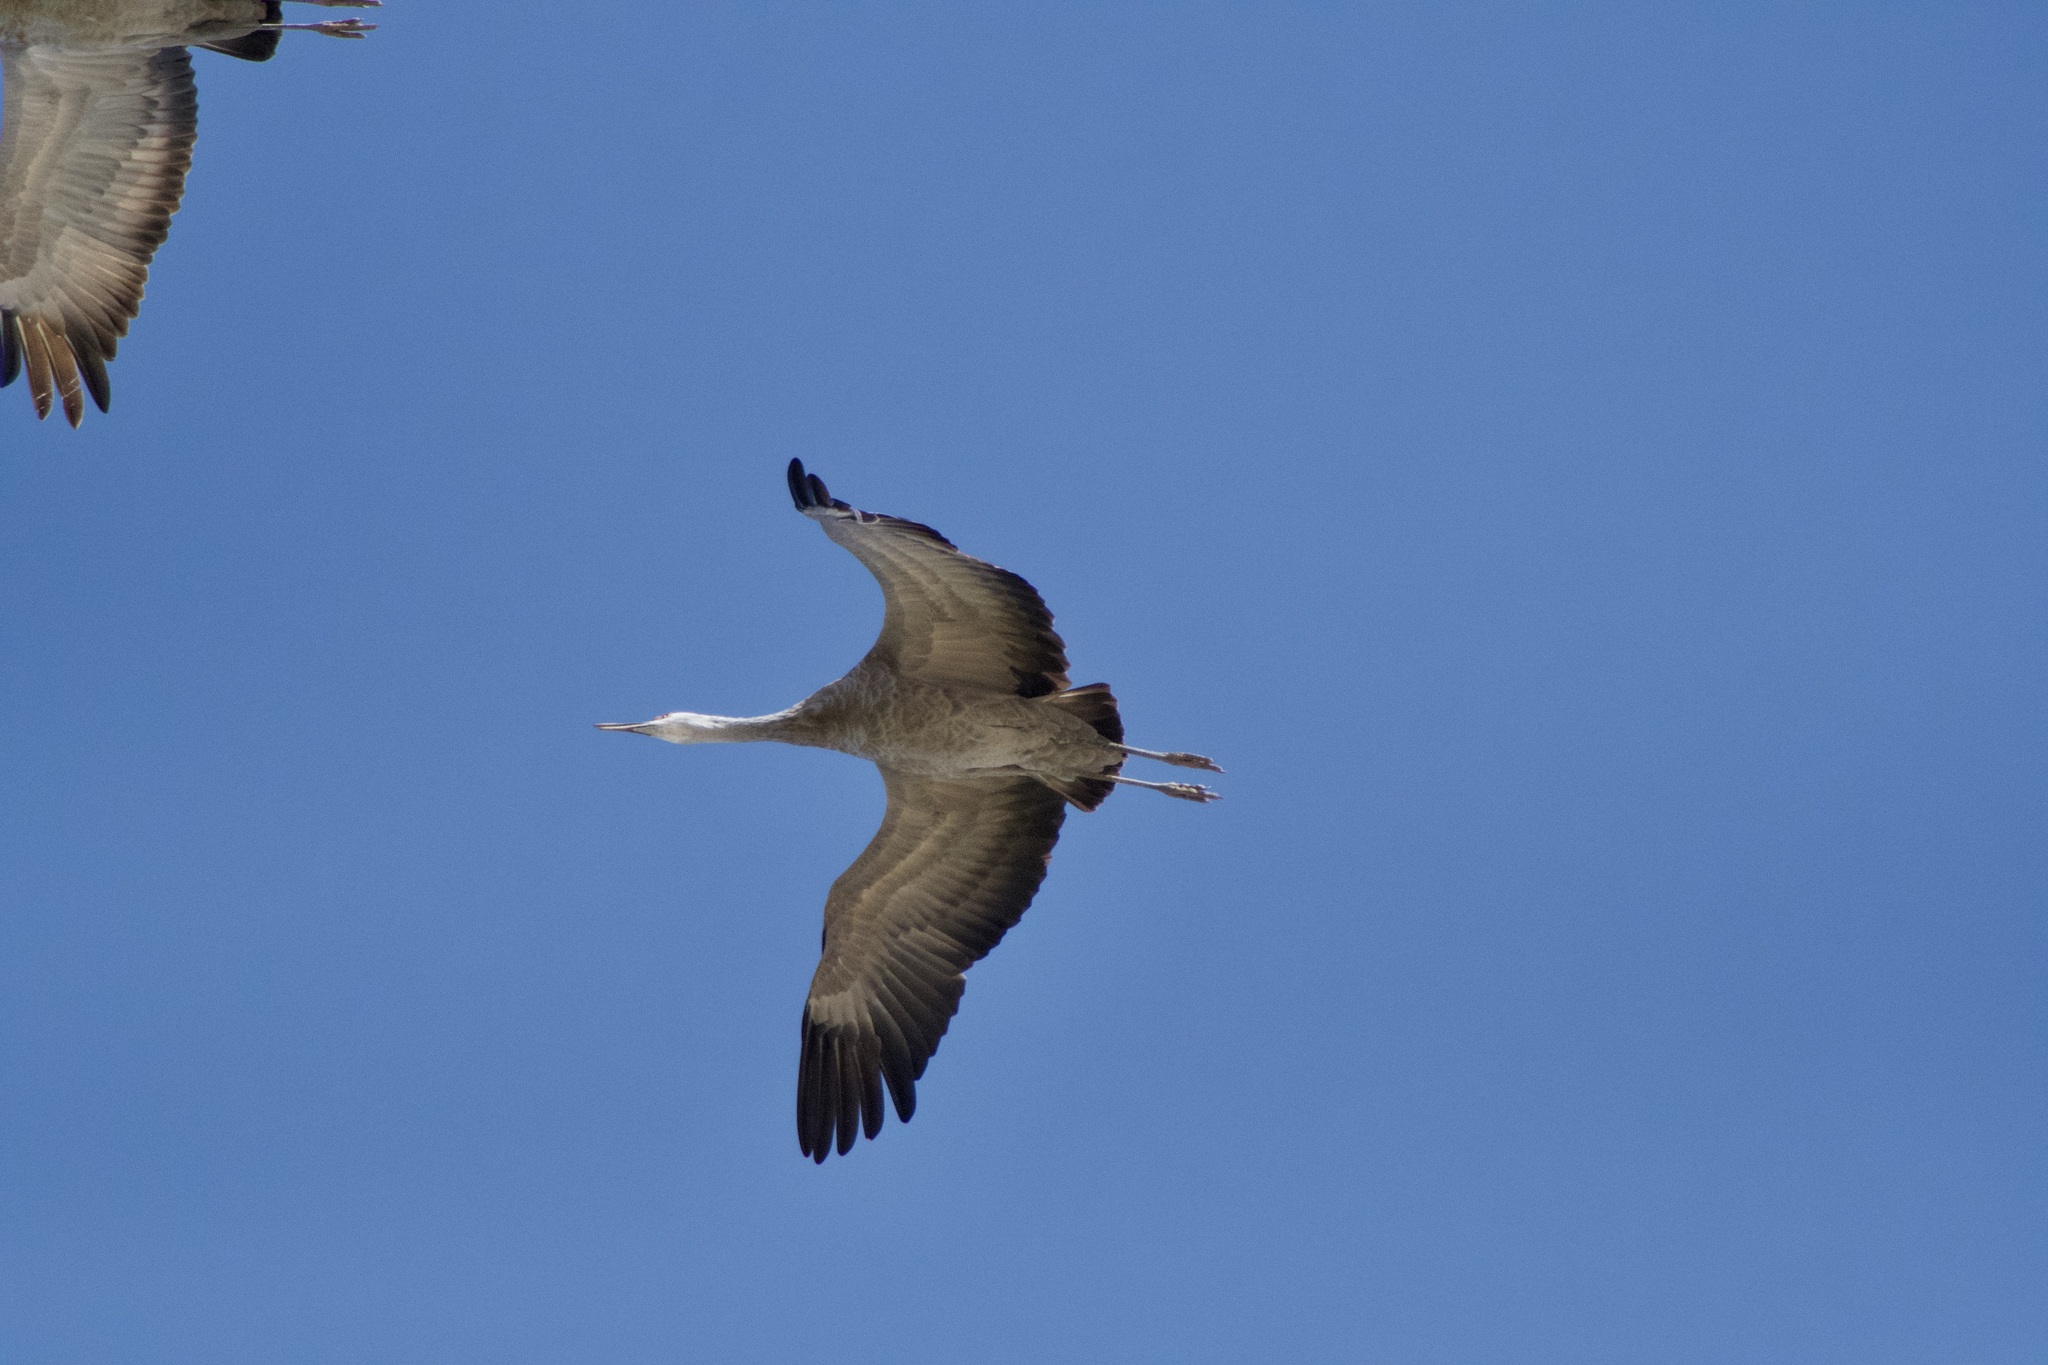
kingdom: Animalia
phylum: Chordata
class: Aves
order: Gruiformes
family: Gruidae
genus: Grus
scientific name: Grus canadensis
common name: Sandhill crane
